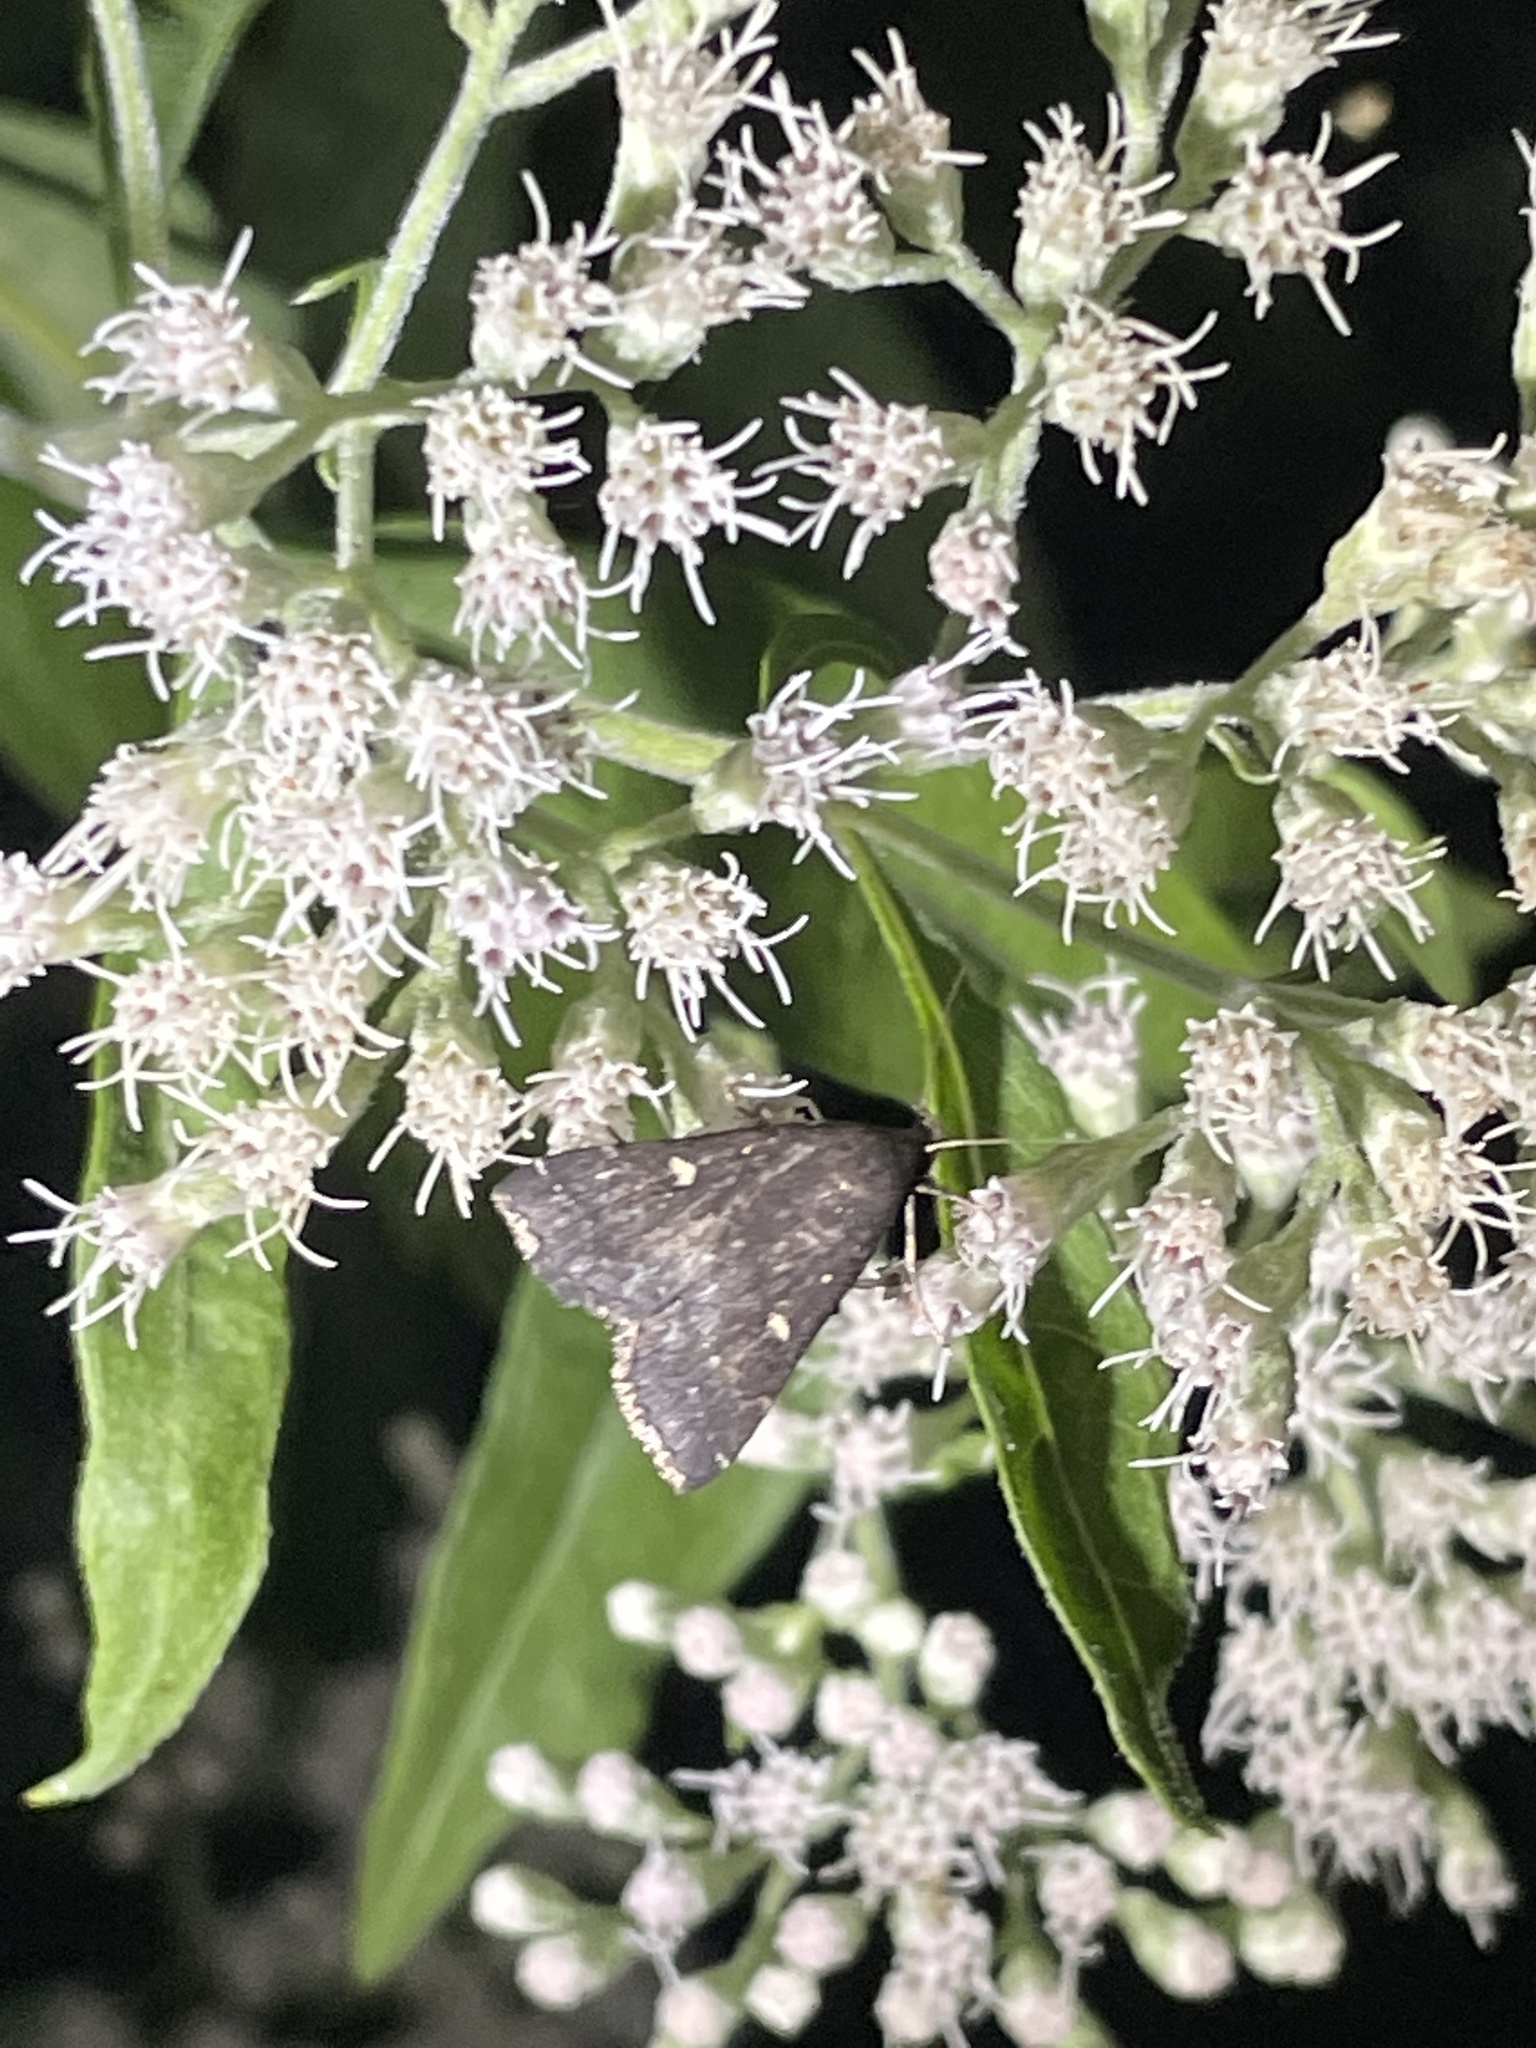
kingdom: Animalia
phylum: Arthropoda
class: Insecta
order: Lepidoptera
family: Erebidae
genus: Tetanolita
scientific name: Tetanolita mynesalis
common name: Smoky tetanolita moth
